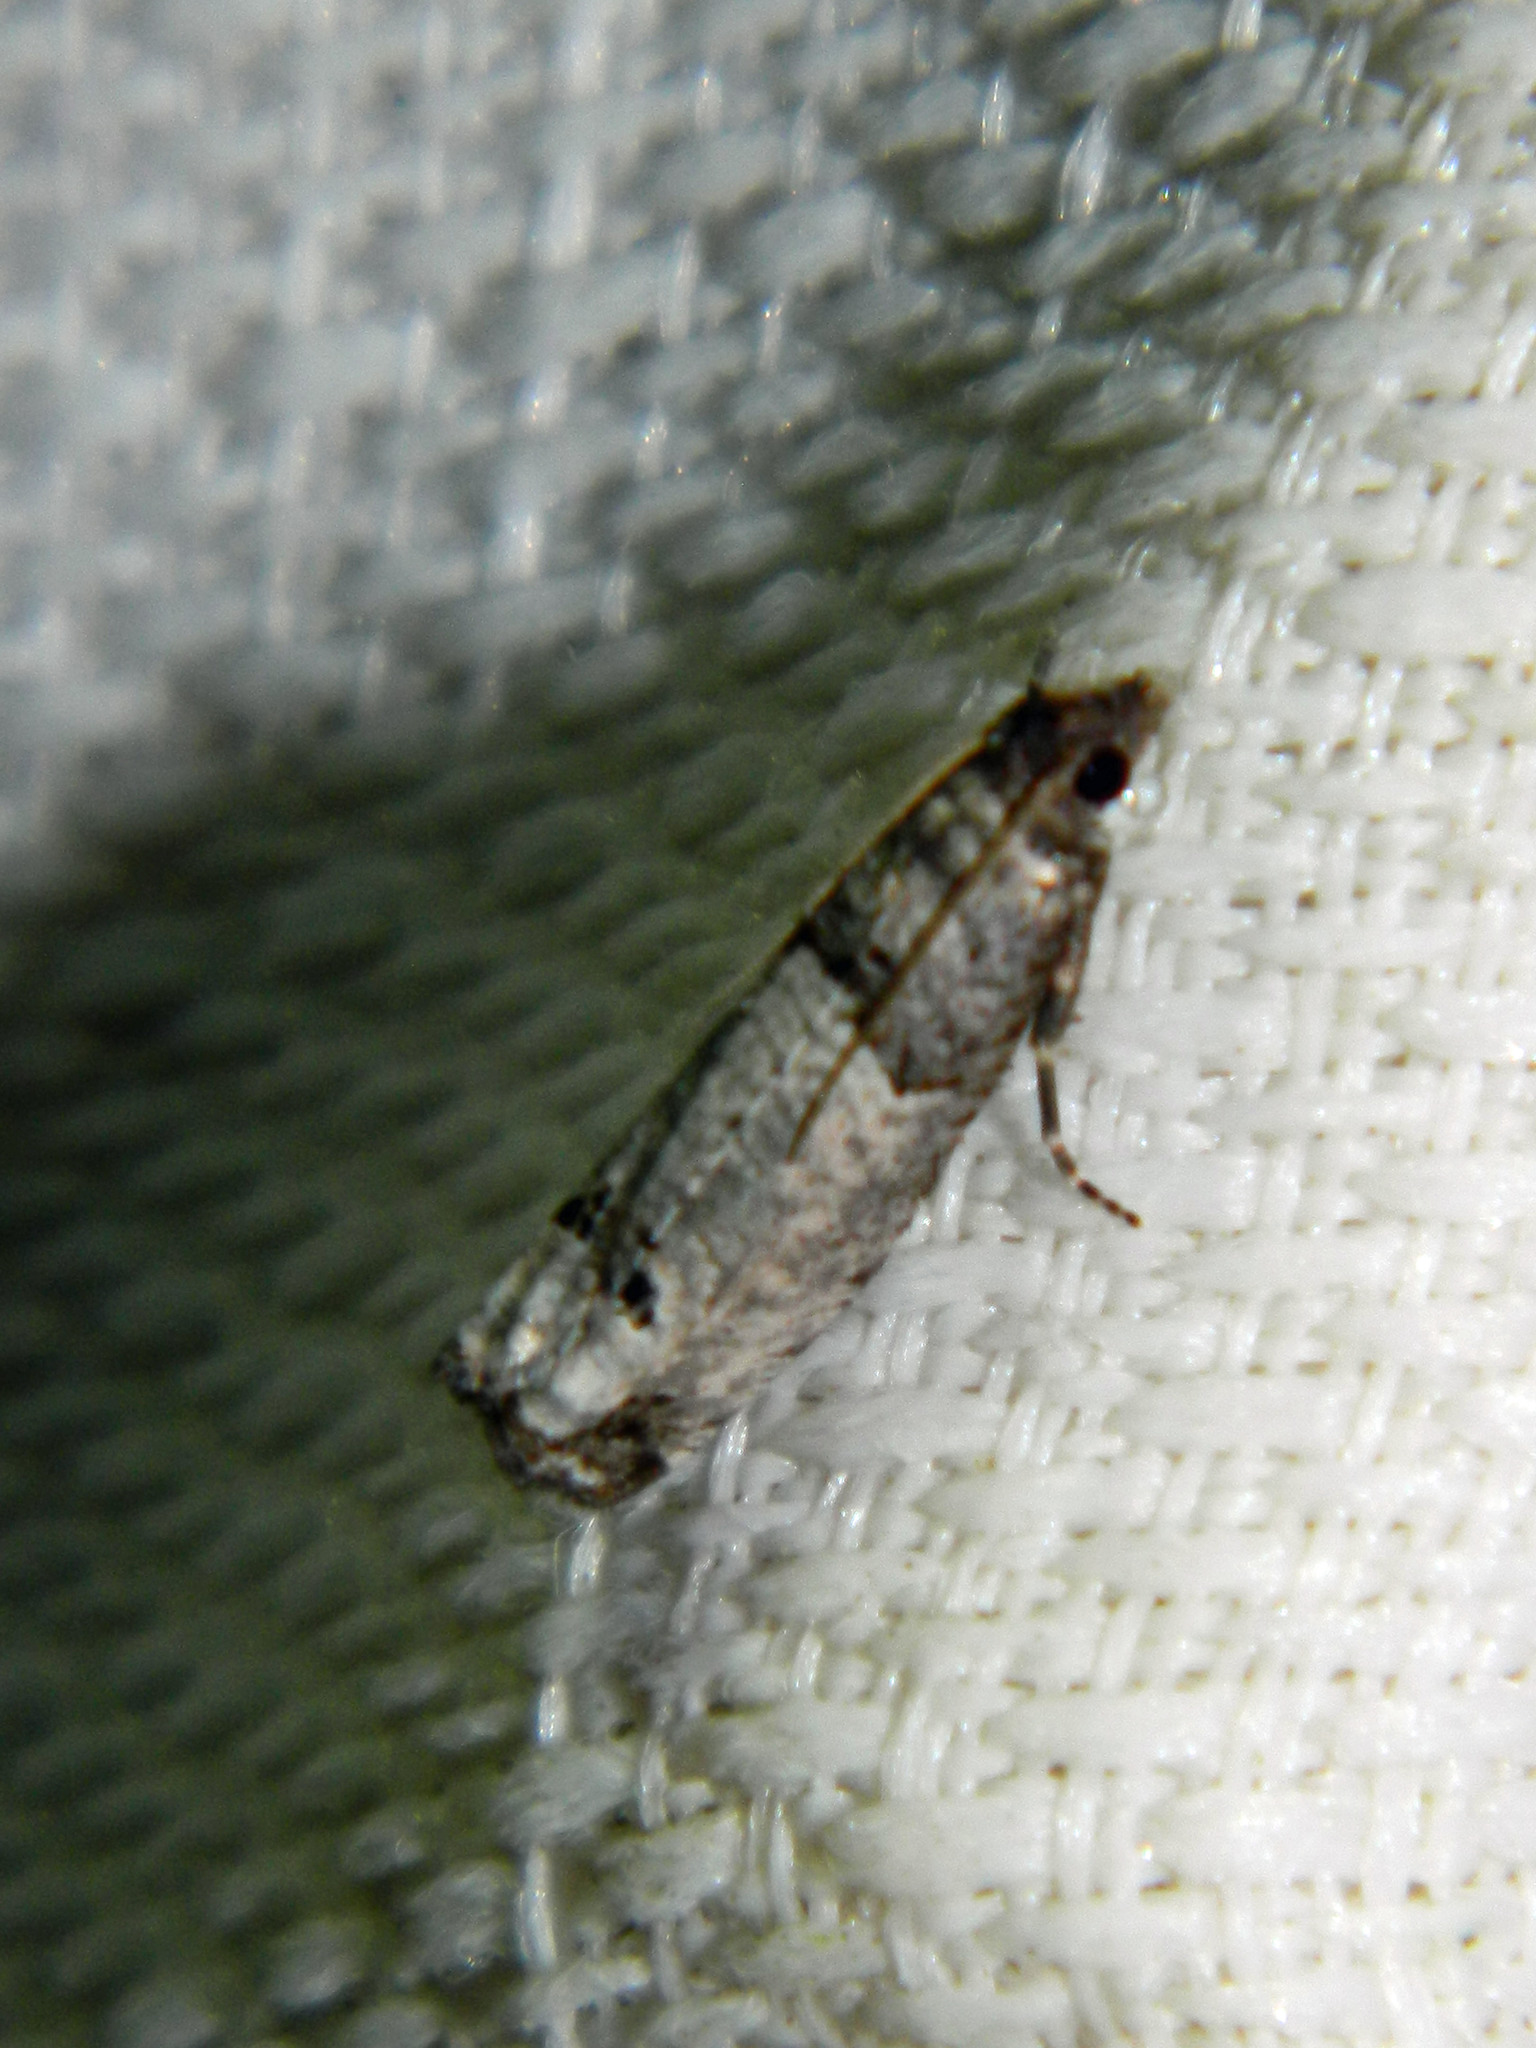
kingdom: Animalia
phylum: Arthropoda
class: Insecta
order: Lepidoptera
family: Tortricidae
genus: Notocelia
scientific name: Notocelia culminana
